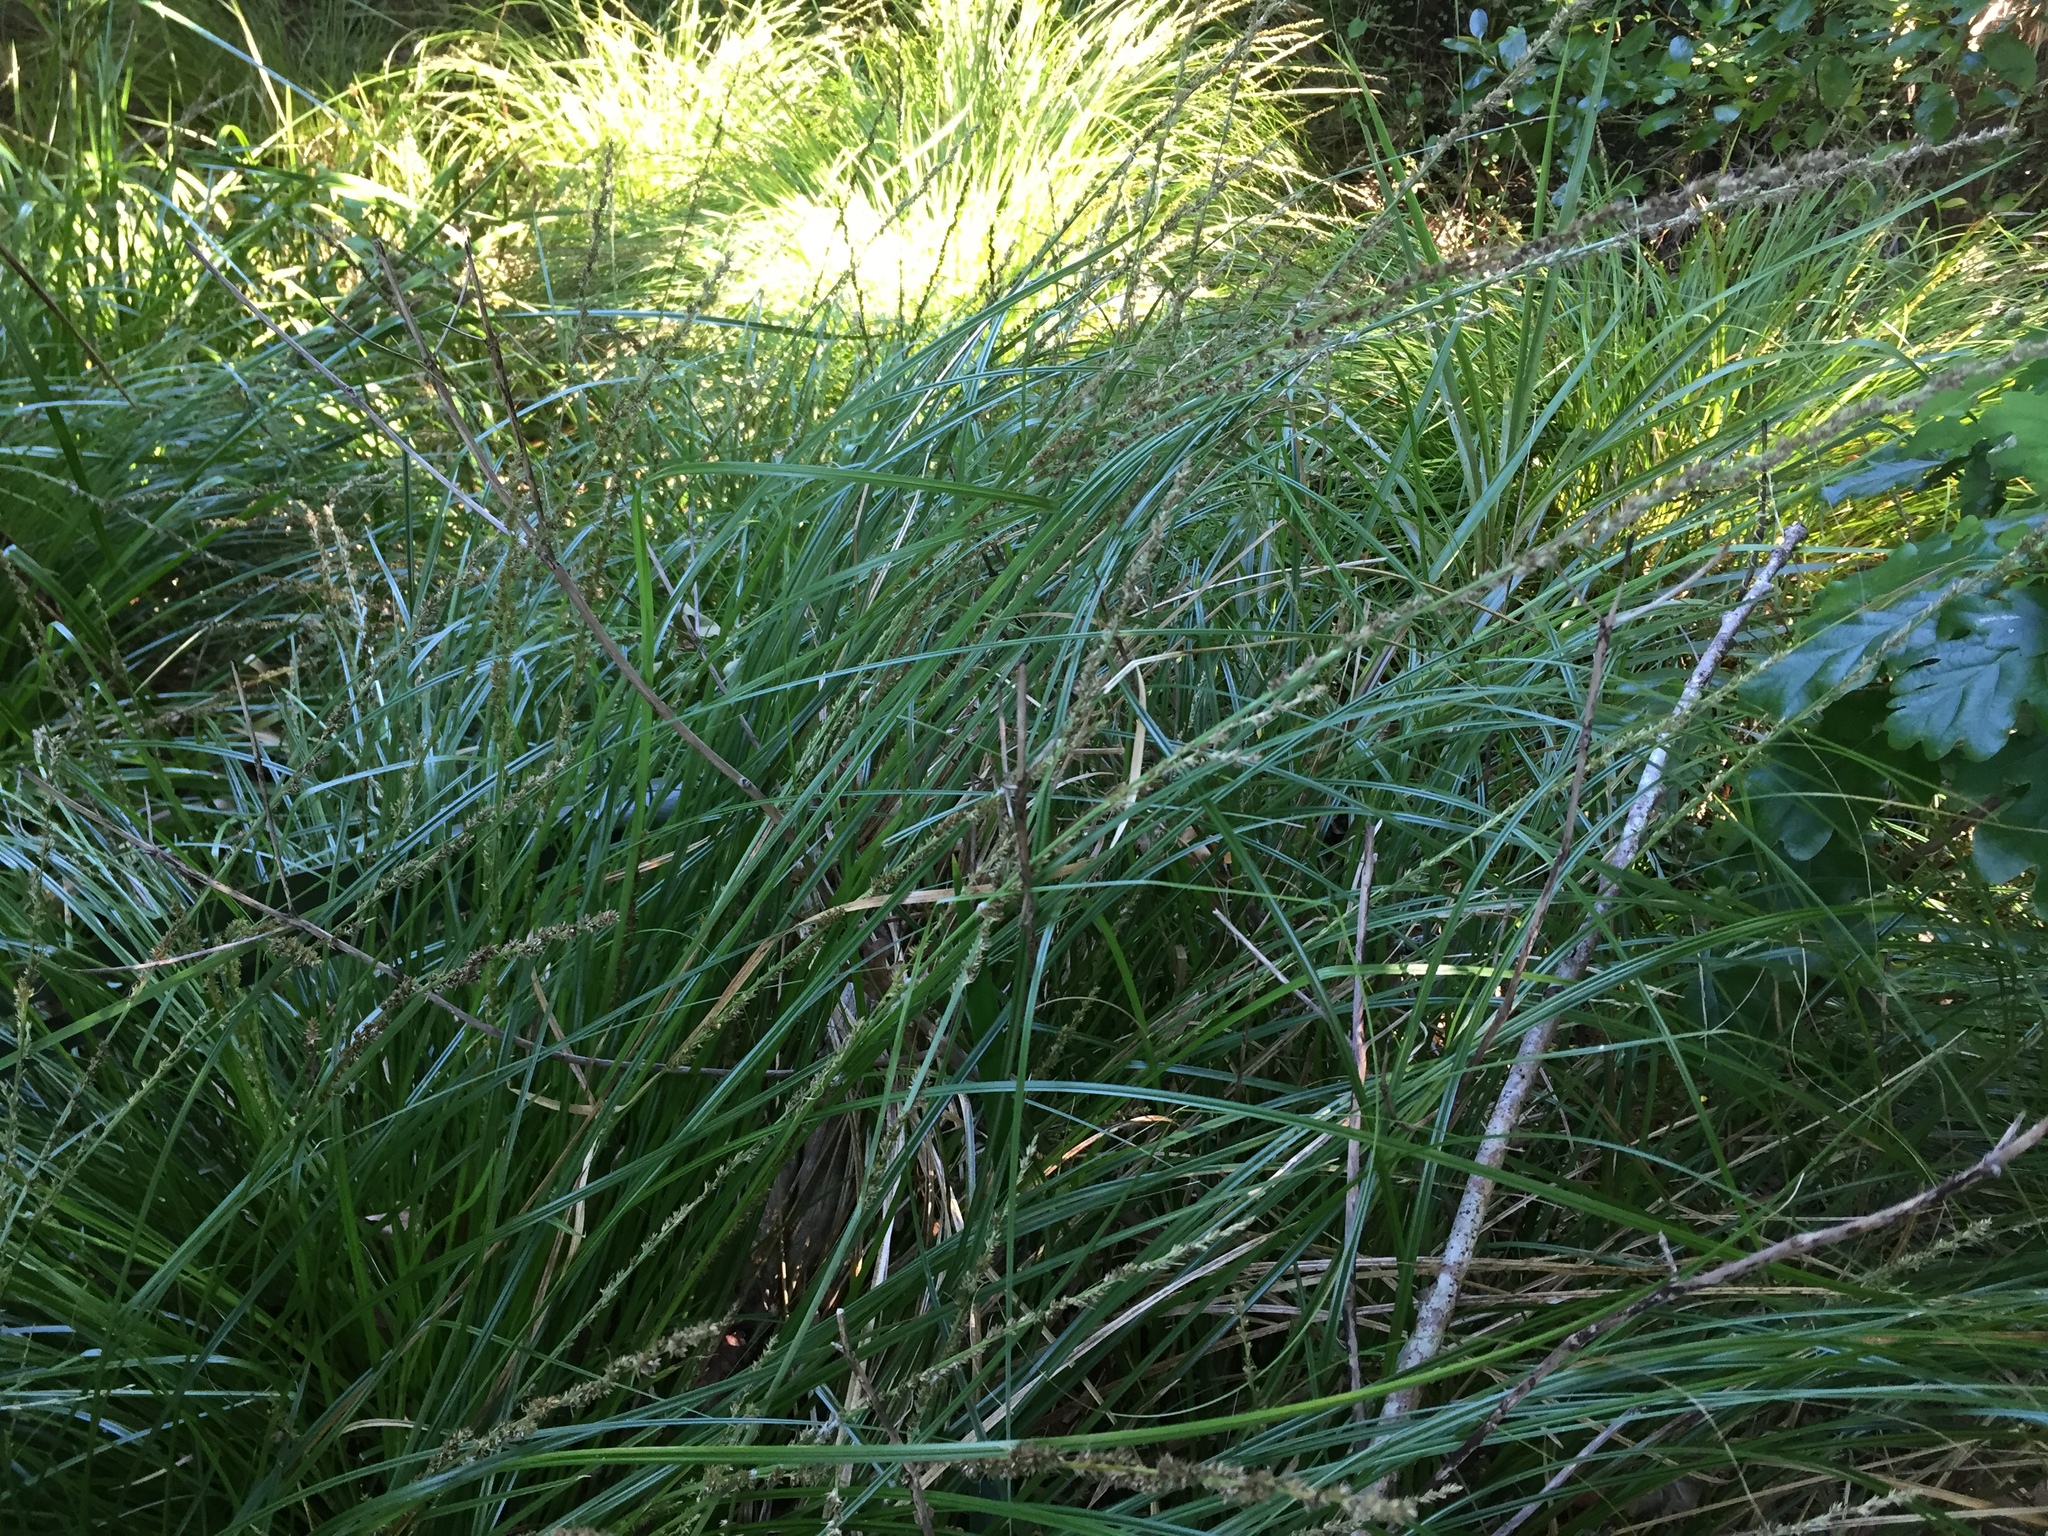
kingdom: Plantae
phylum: Tracheophyta
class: Liliopsida
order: Poales
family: Cyperaceae
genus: Carex
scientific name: Carex virgata
